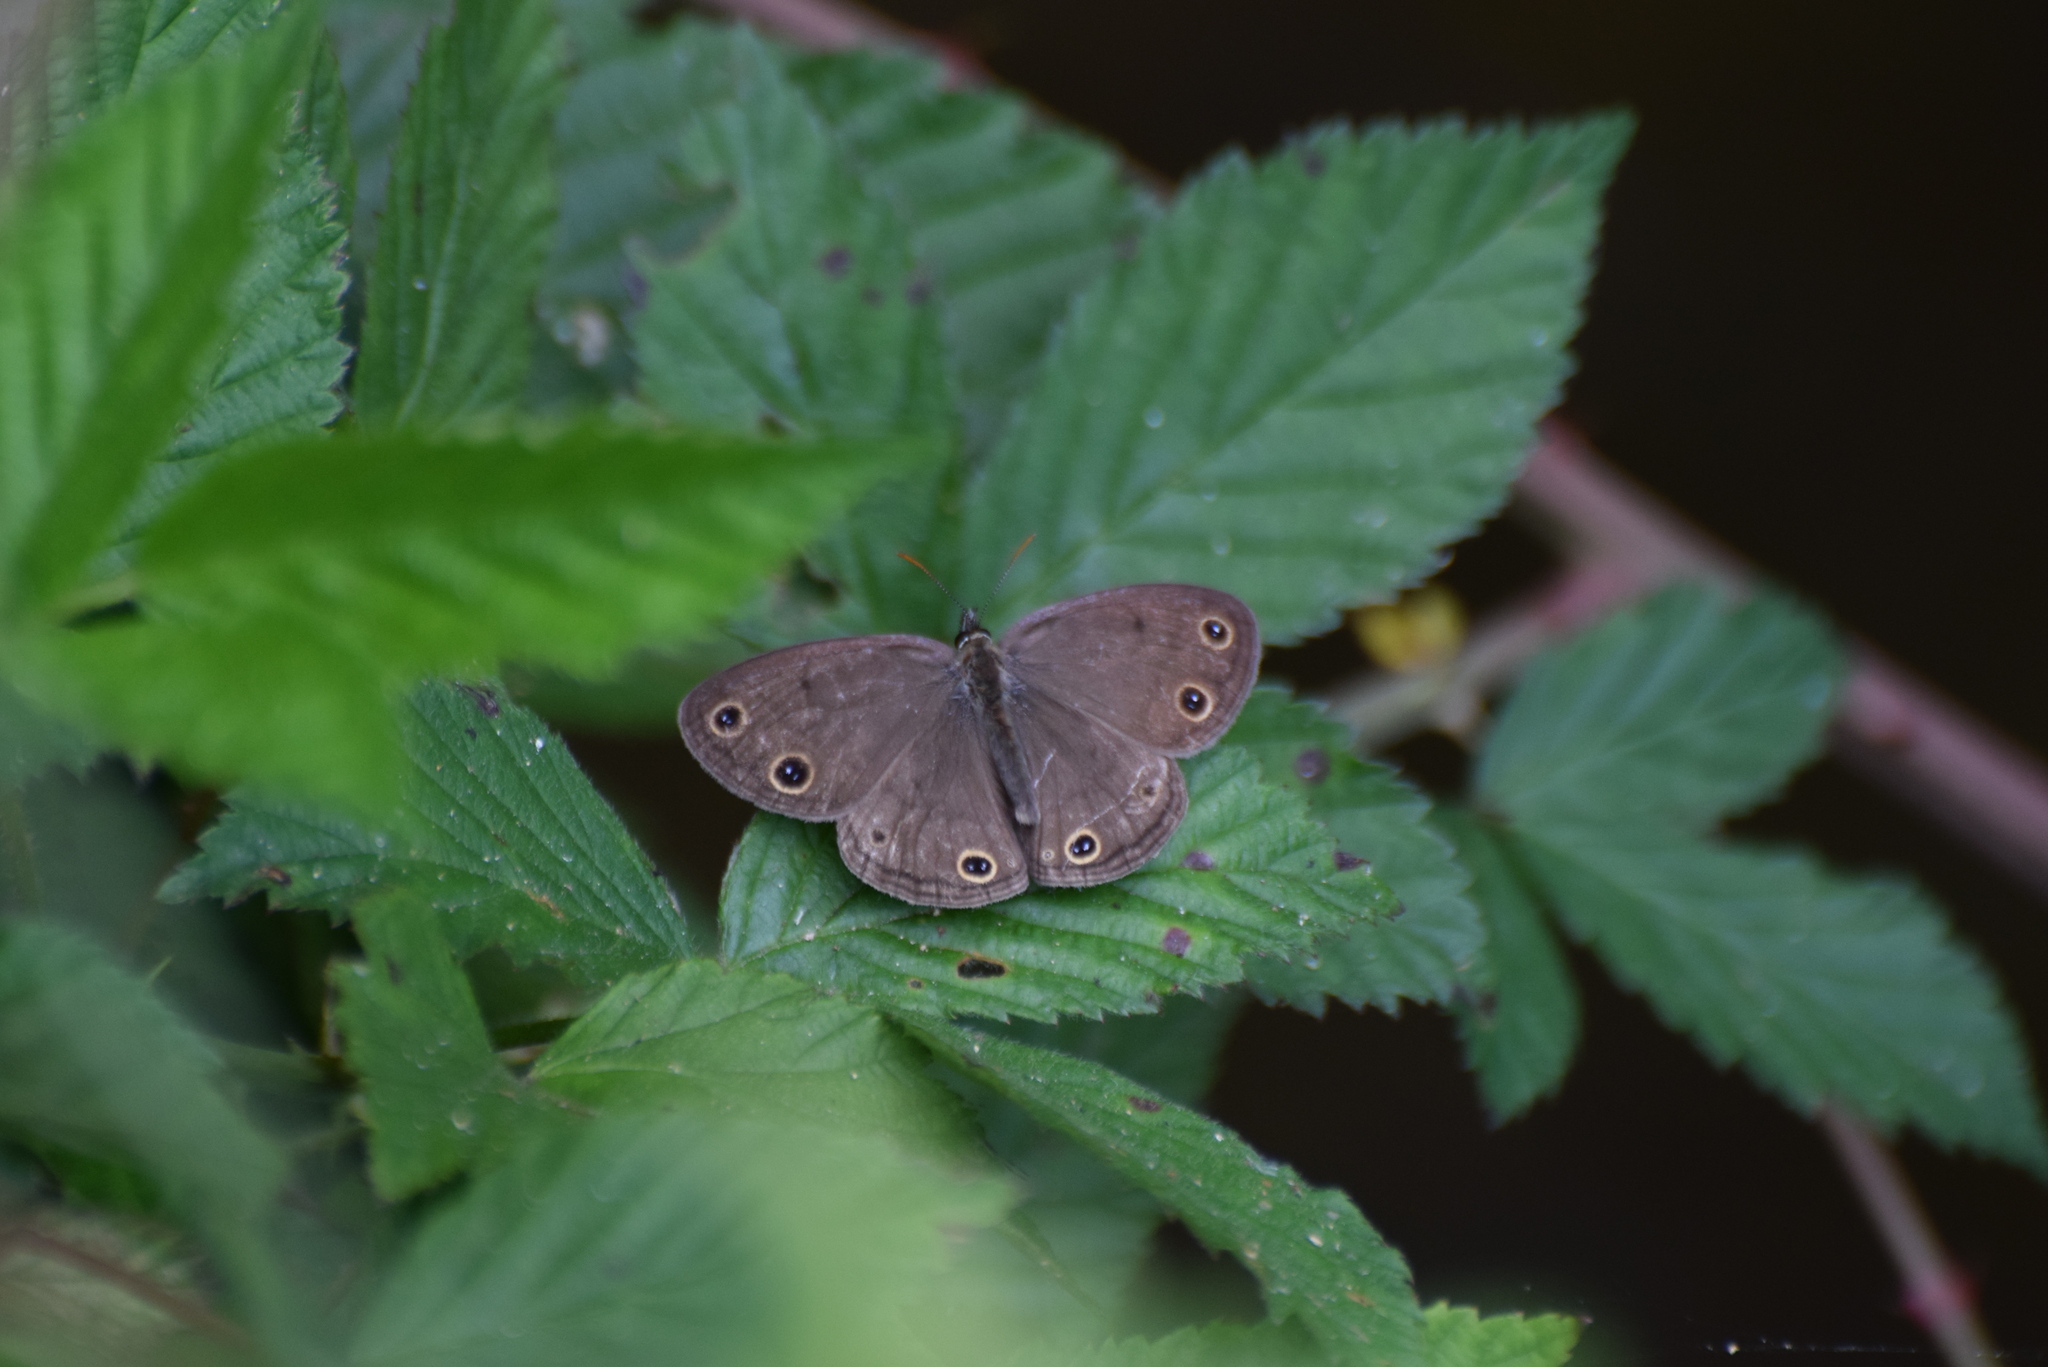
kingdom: Animalia
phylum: Arthropoda
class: Insecta
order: Lepidoptera
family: Nymphalidae
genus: Euptychia
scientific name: Euptychia cymela
